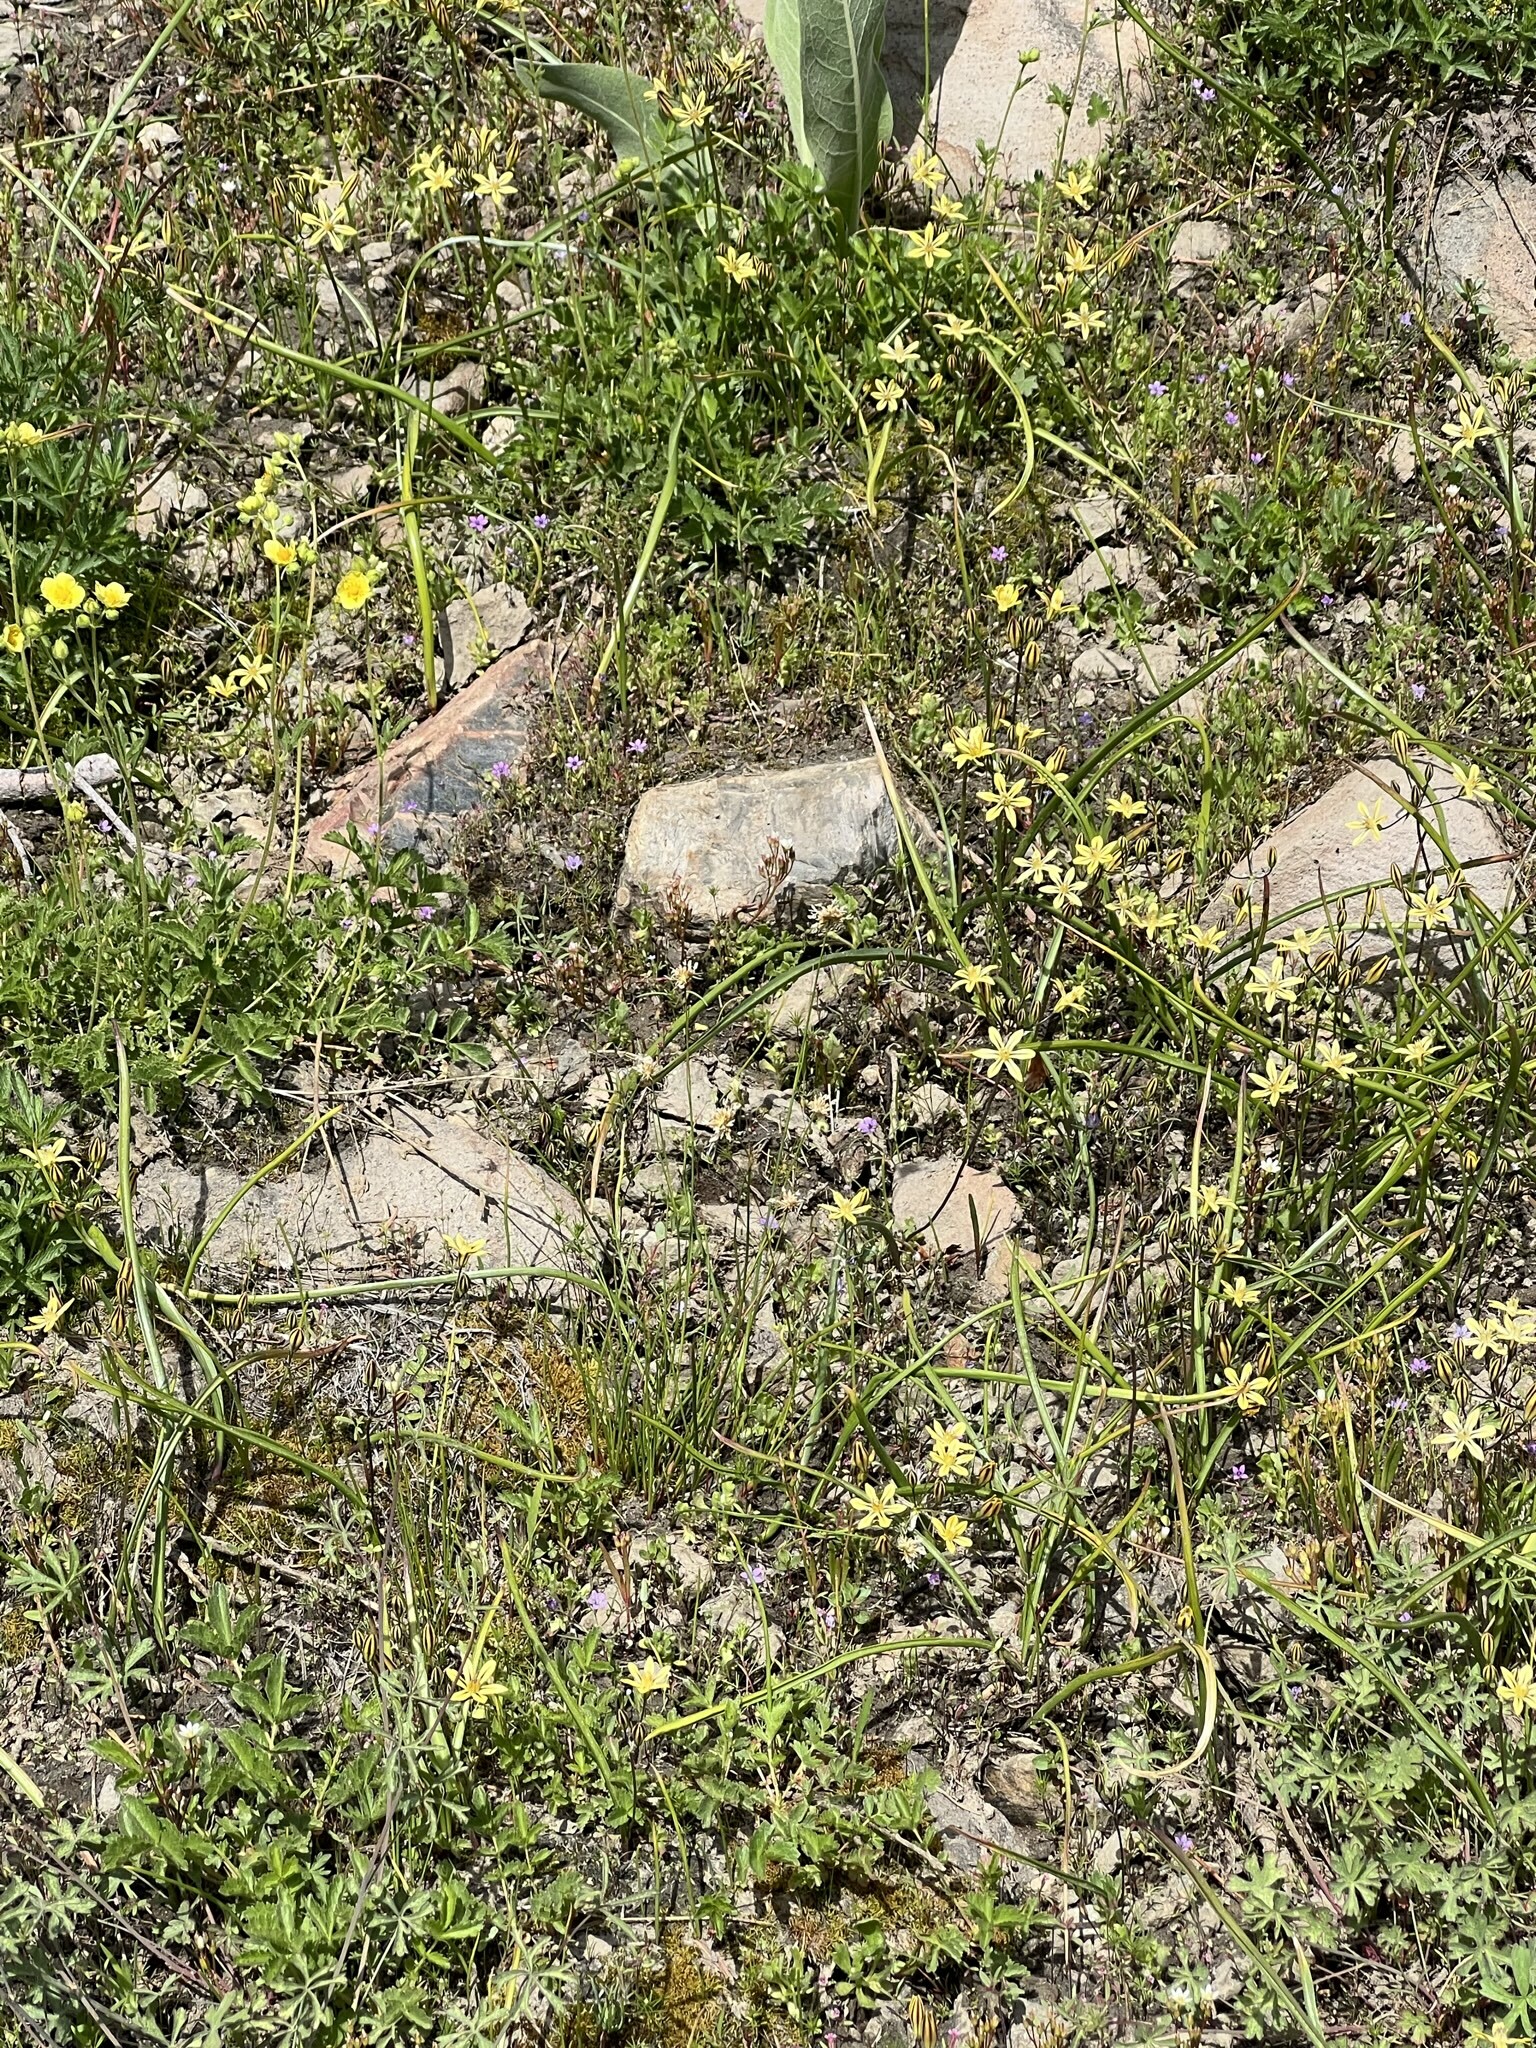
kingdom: Plantae
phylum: Tracheophyta
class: Liliopsida
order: Asparagales
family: Asparagaceae
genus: Triteleia
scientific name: Triteleia ixioides
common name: Yellow-brodiaea
